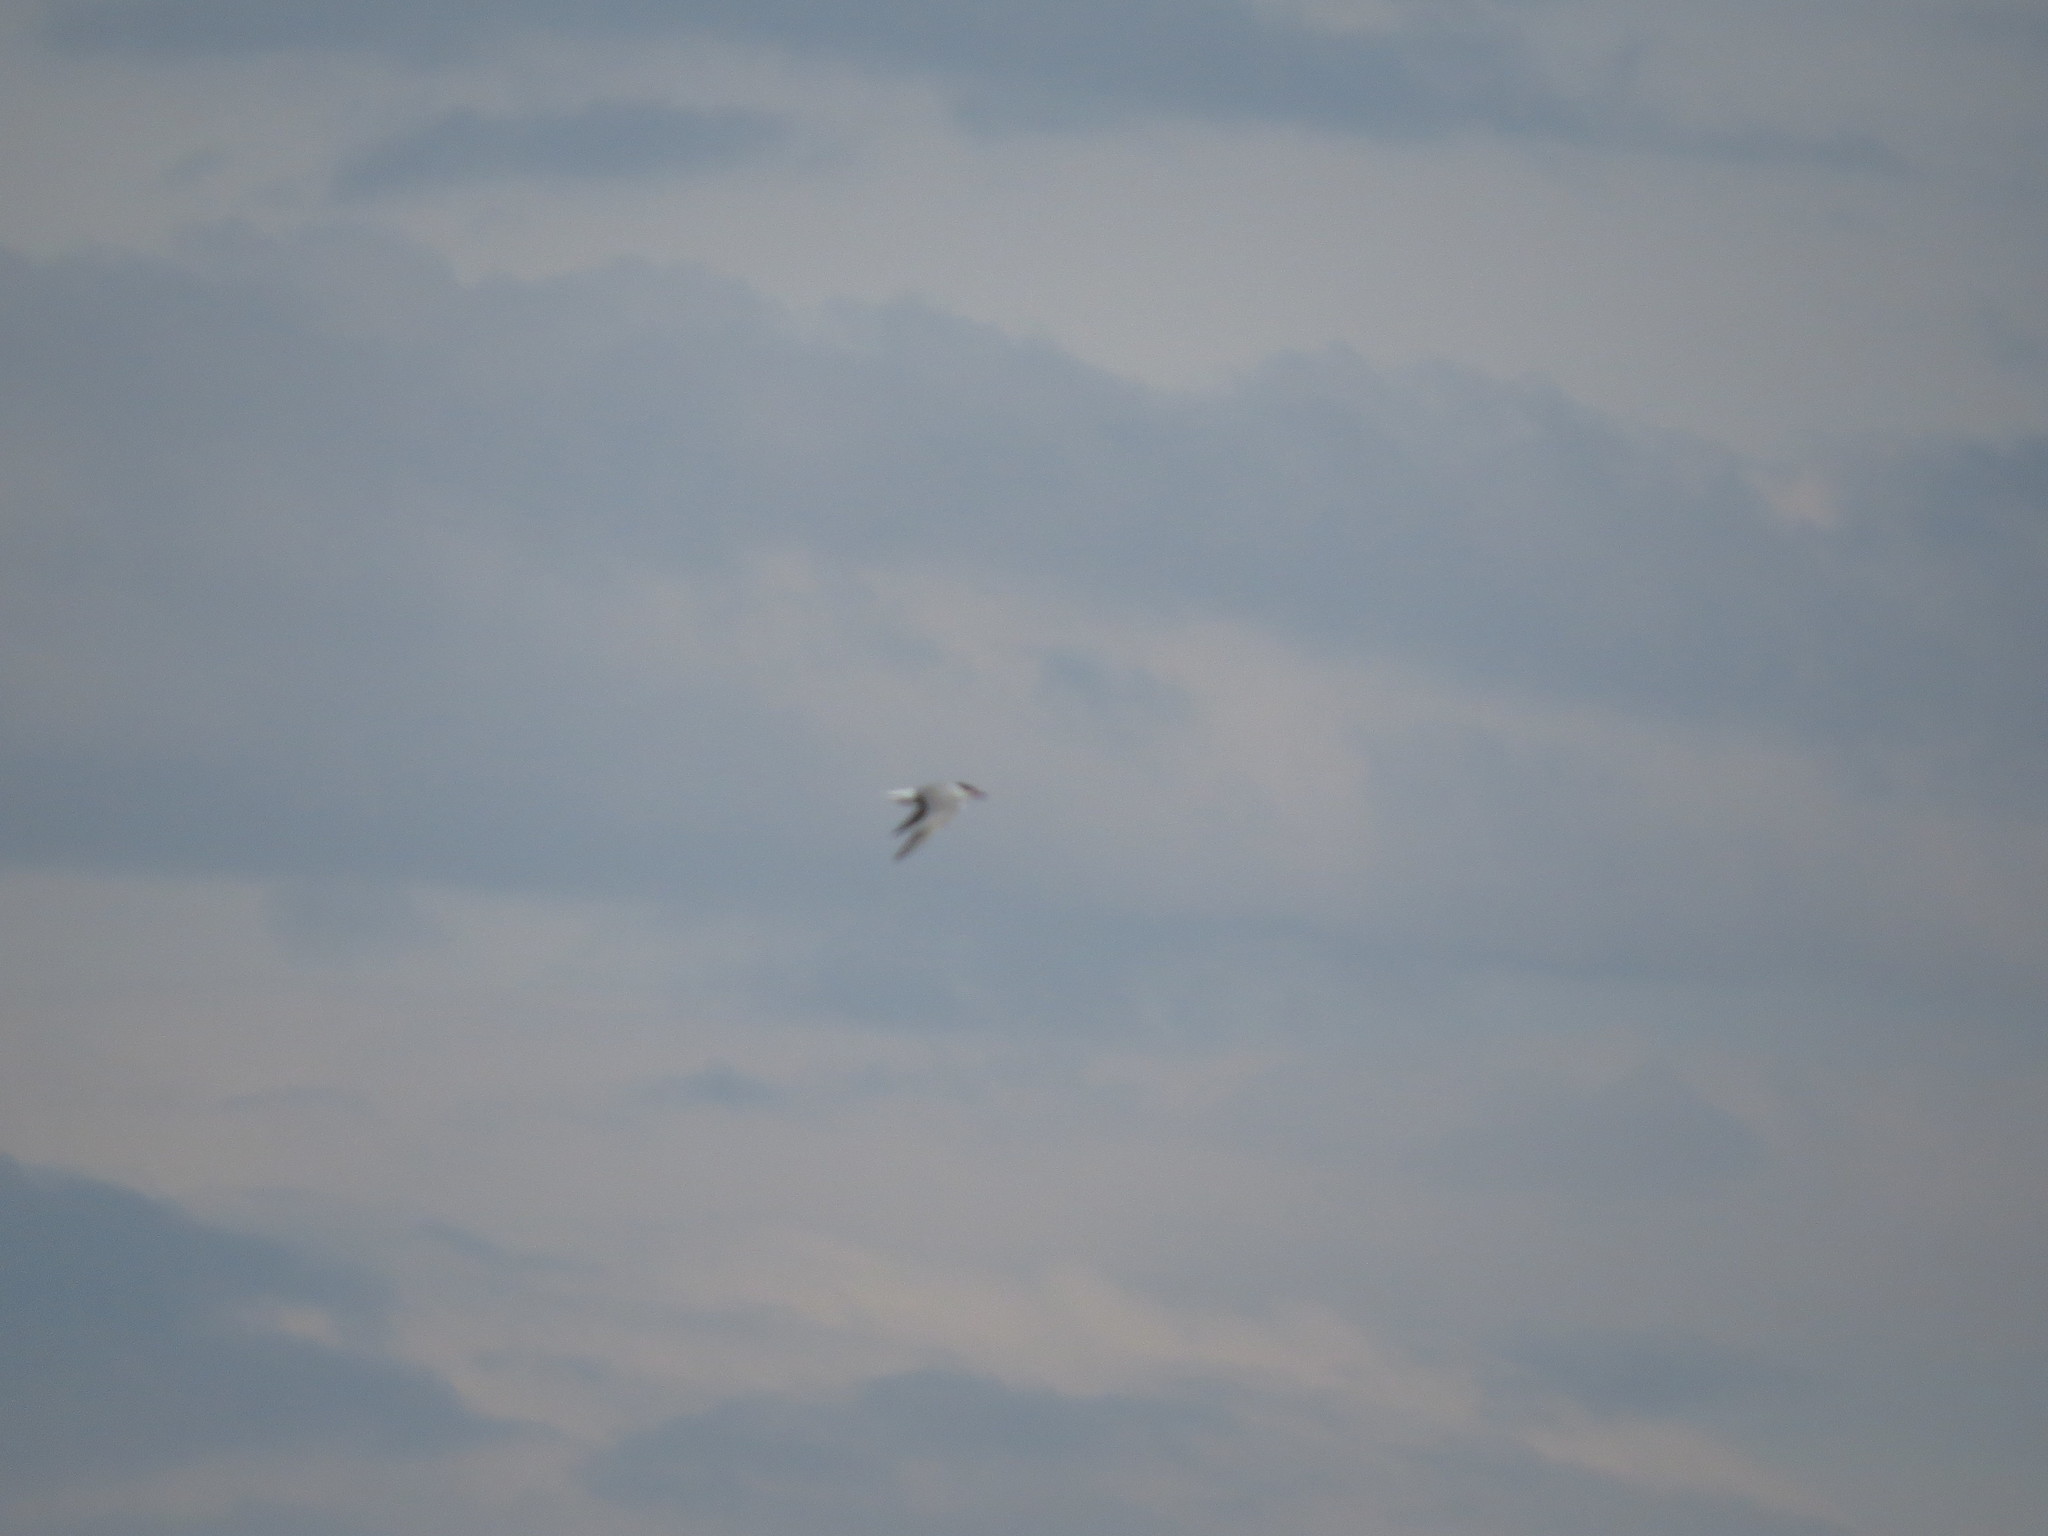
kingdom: Animalia
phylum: Chordata
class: Aves
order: Charadriiformes
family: Laridae
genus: Sterna
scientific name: Sterna hirundo
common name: Common tern
